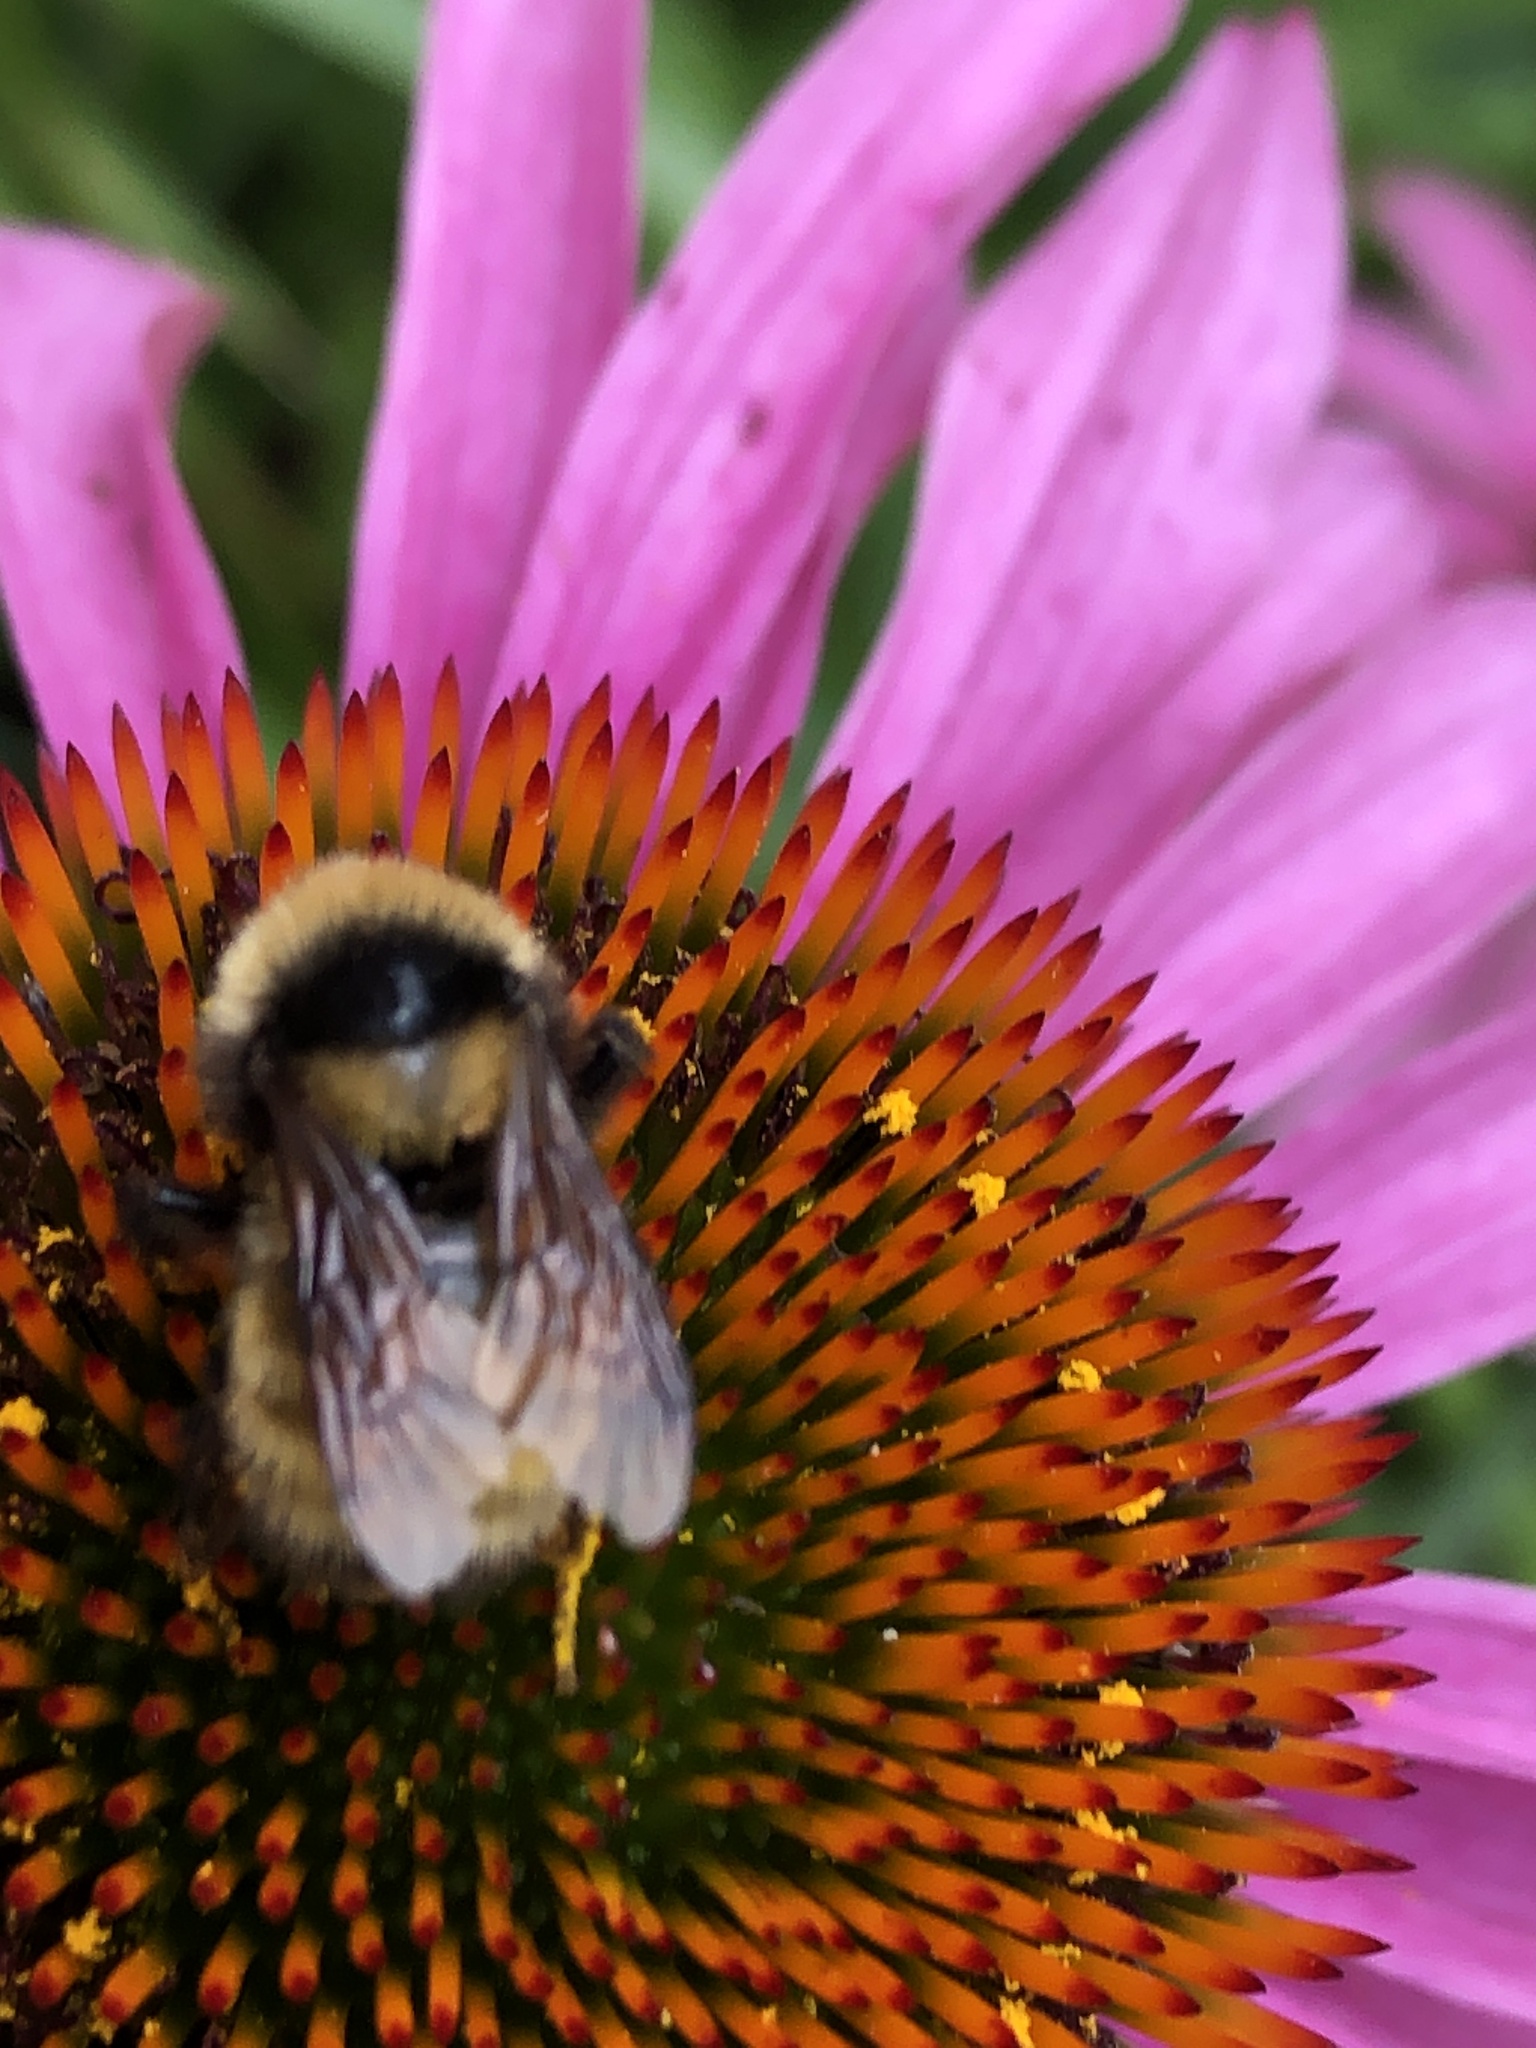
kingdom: Animalia
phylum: Arthropoda
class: Insecta
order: Hymenoptera
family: Apidae
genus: Bombus
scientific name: Bombus borealis
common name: Northern amber bumble bee
